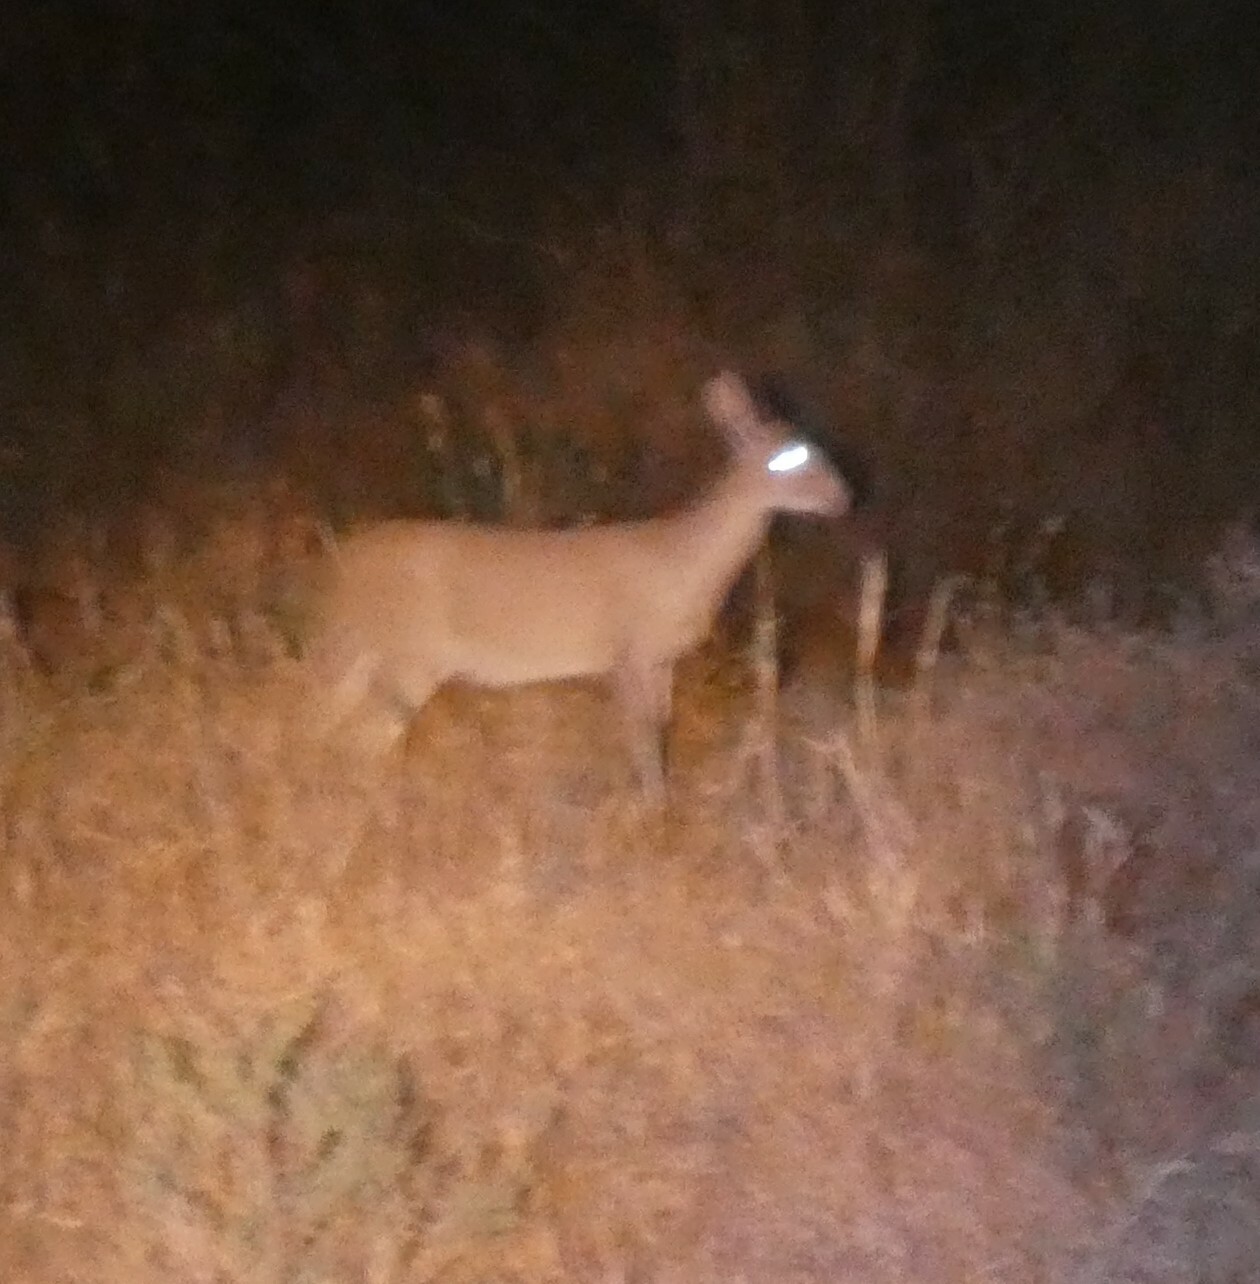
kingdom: Animalia
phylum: Chordata
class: Mammalia
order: Artiodactyla
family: Bovidae
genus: Sylvicapra
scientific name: Sylvicapra grimmia
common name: Bush duiker
